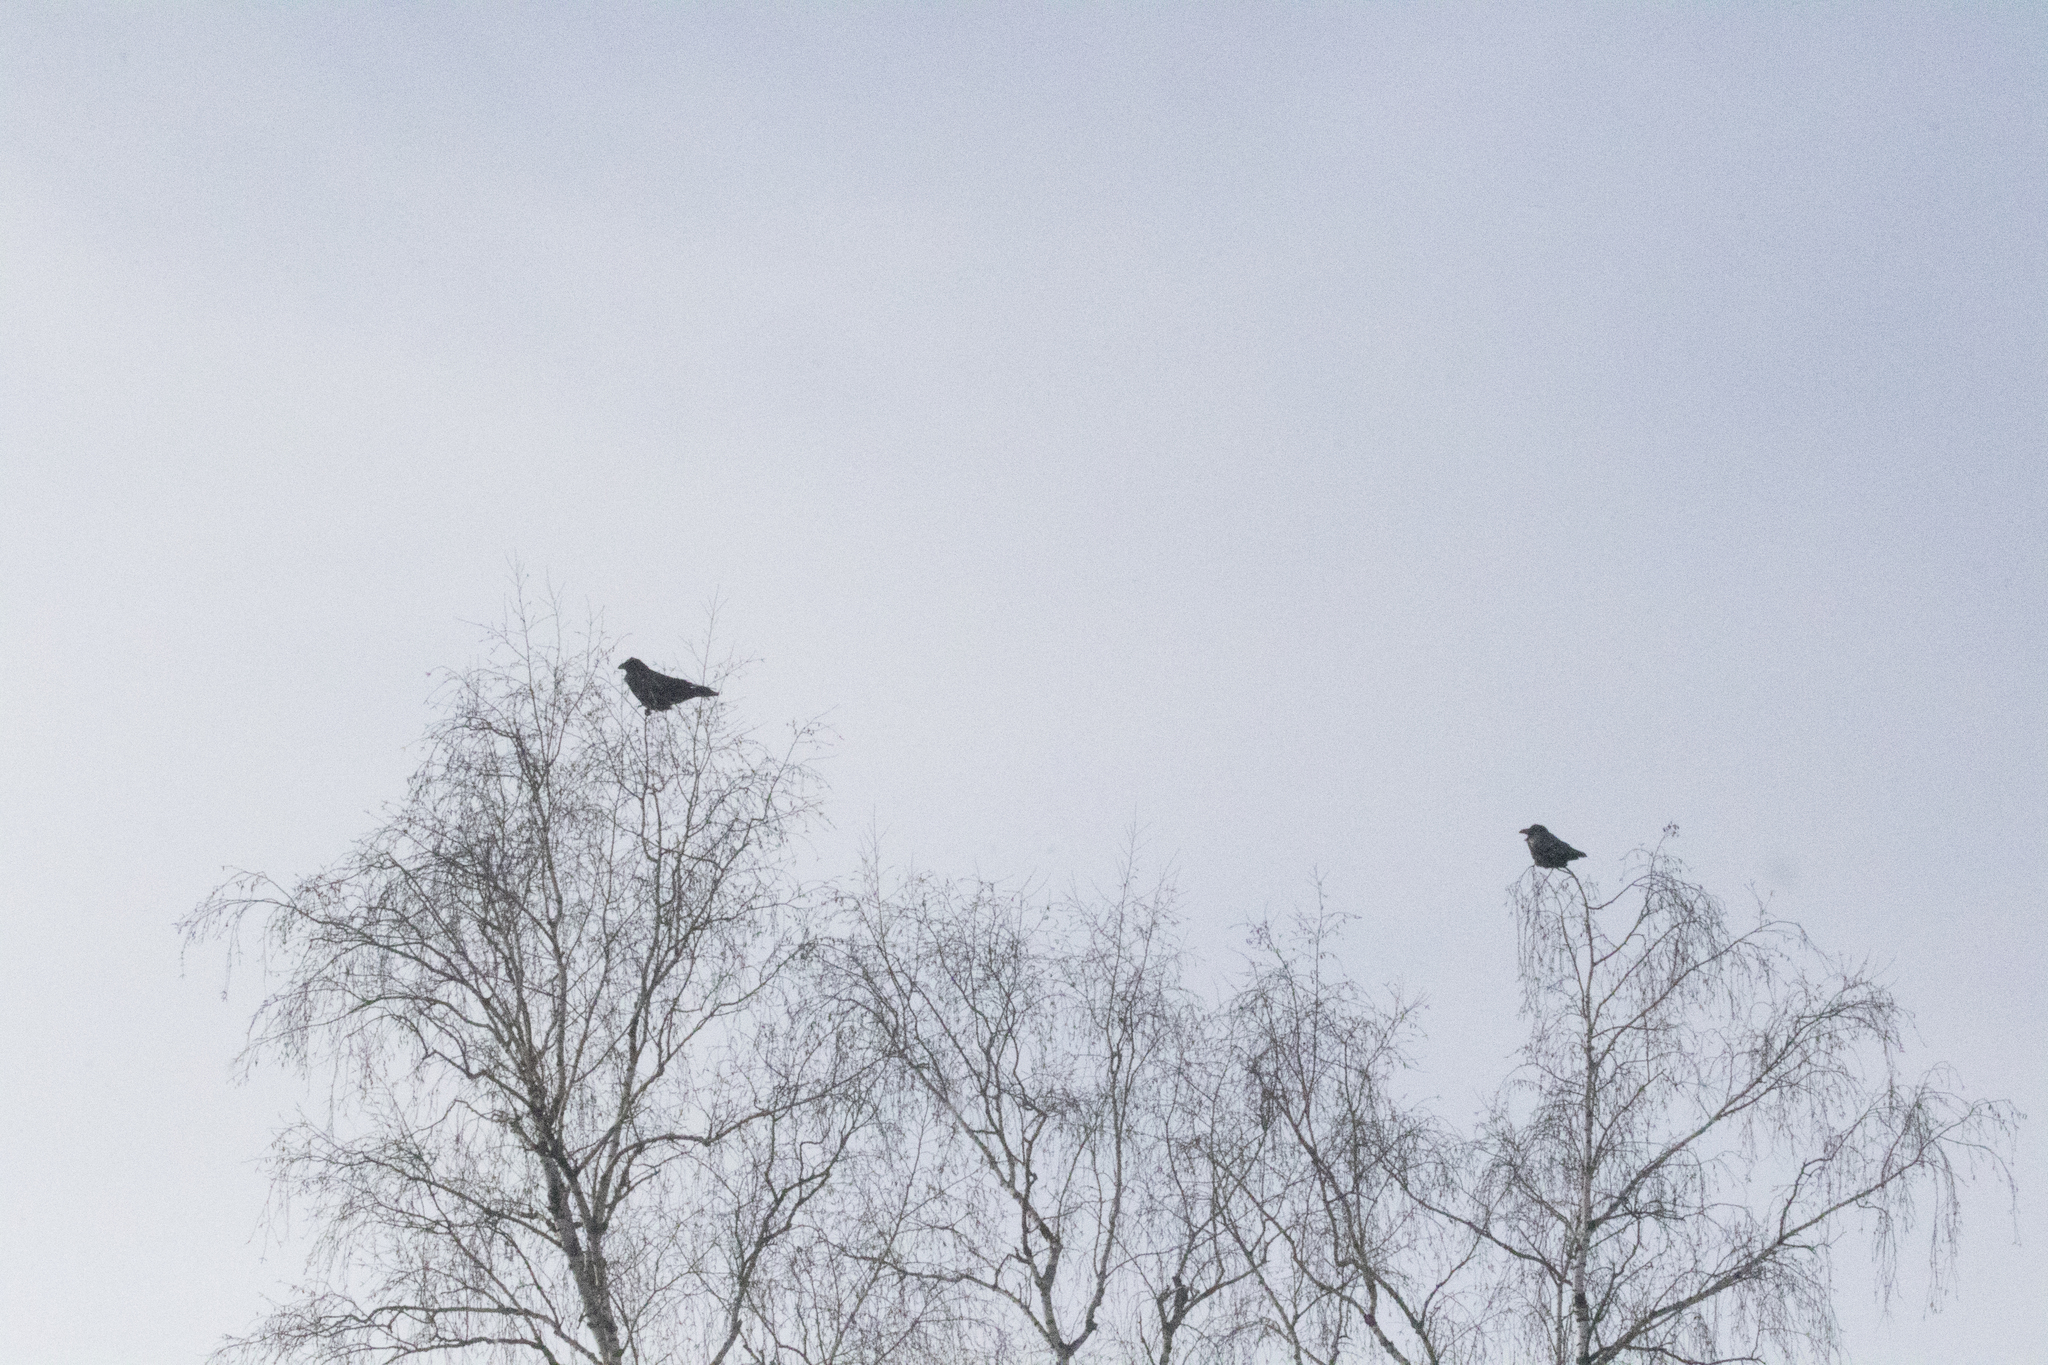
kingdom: Animalia
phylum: Chordata
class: Aves
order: Passeriformes
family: Corvidae
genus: Corvus
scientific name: Corvus corax
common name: Common raven
